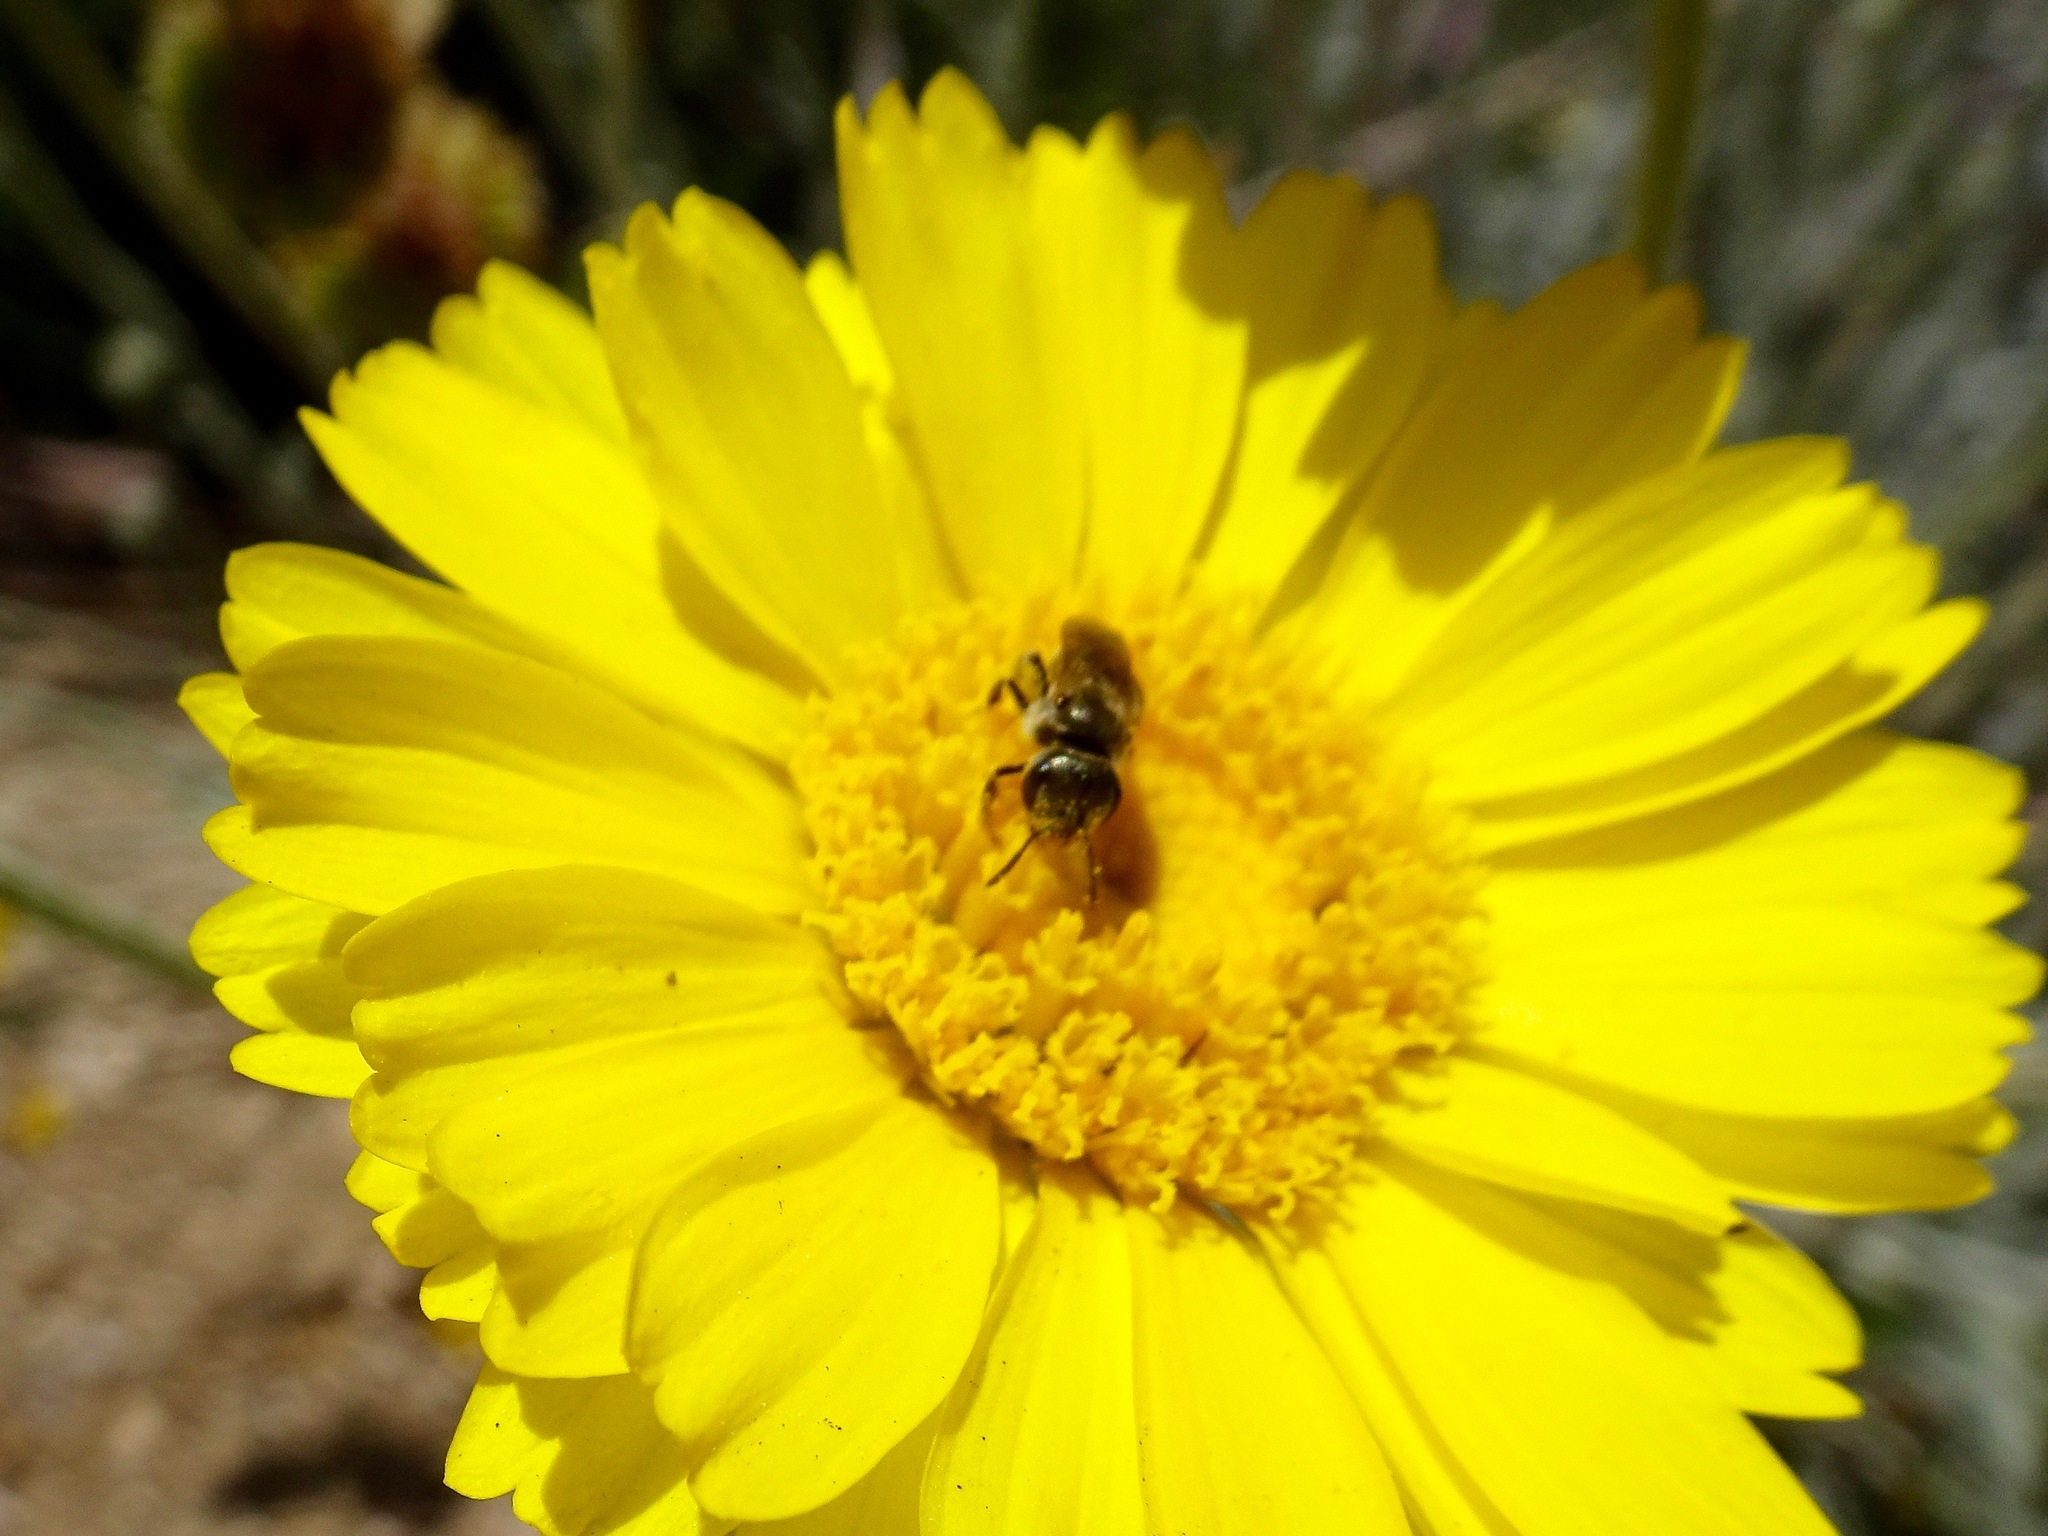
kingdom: Animalia
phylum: Arthropoda
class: Insecta
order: Hymenoptera
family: Halictidae
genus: Halictus
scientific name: Halictus tripartitus
